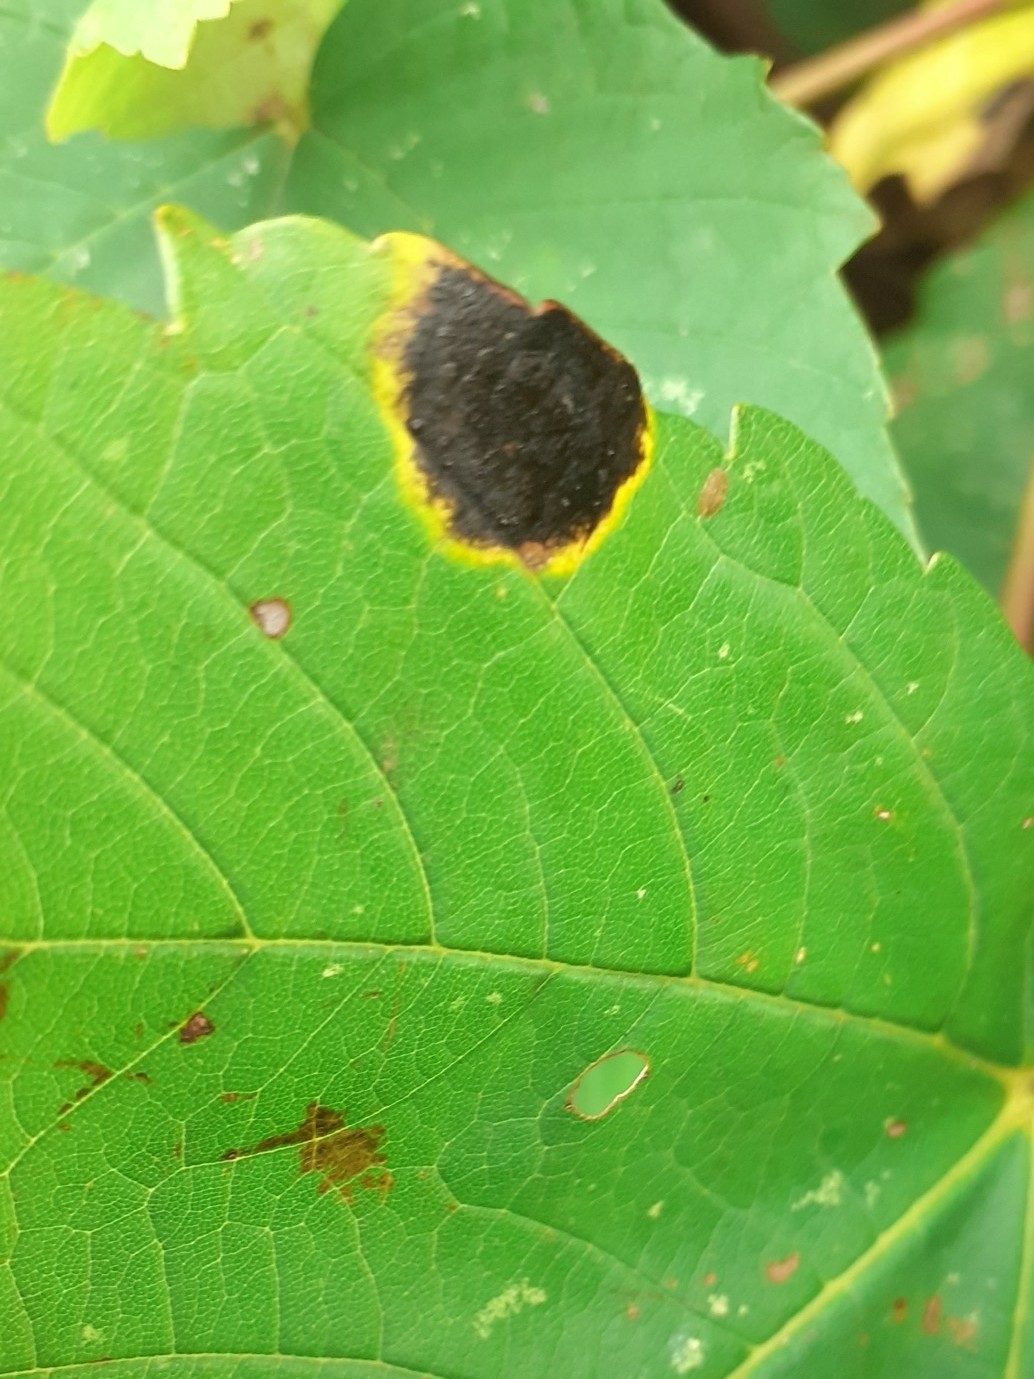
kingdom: Fungi
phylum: Ascomycota
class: Leotiomycetes
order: Rhytismatales
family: Rhytismataceae
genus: Rhytisma
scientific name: Rhytisma acerinum
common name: European tar spot
